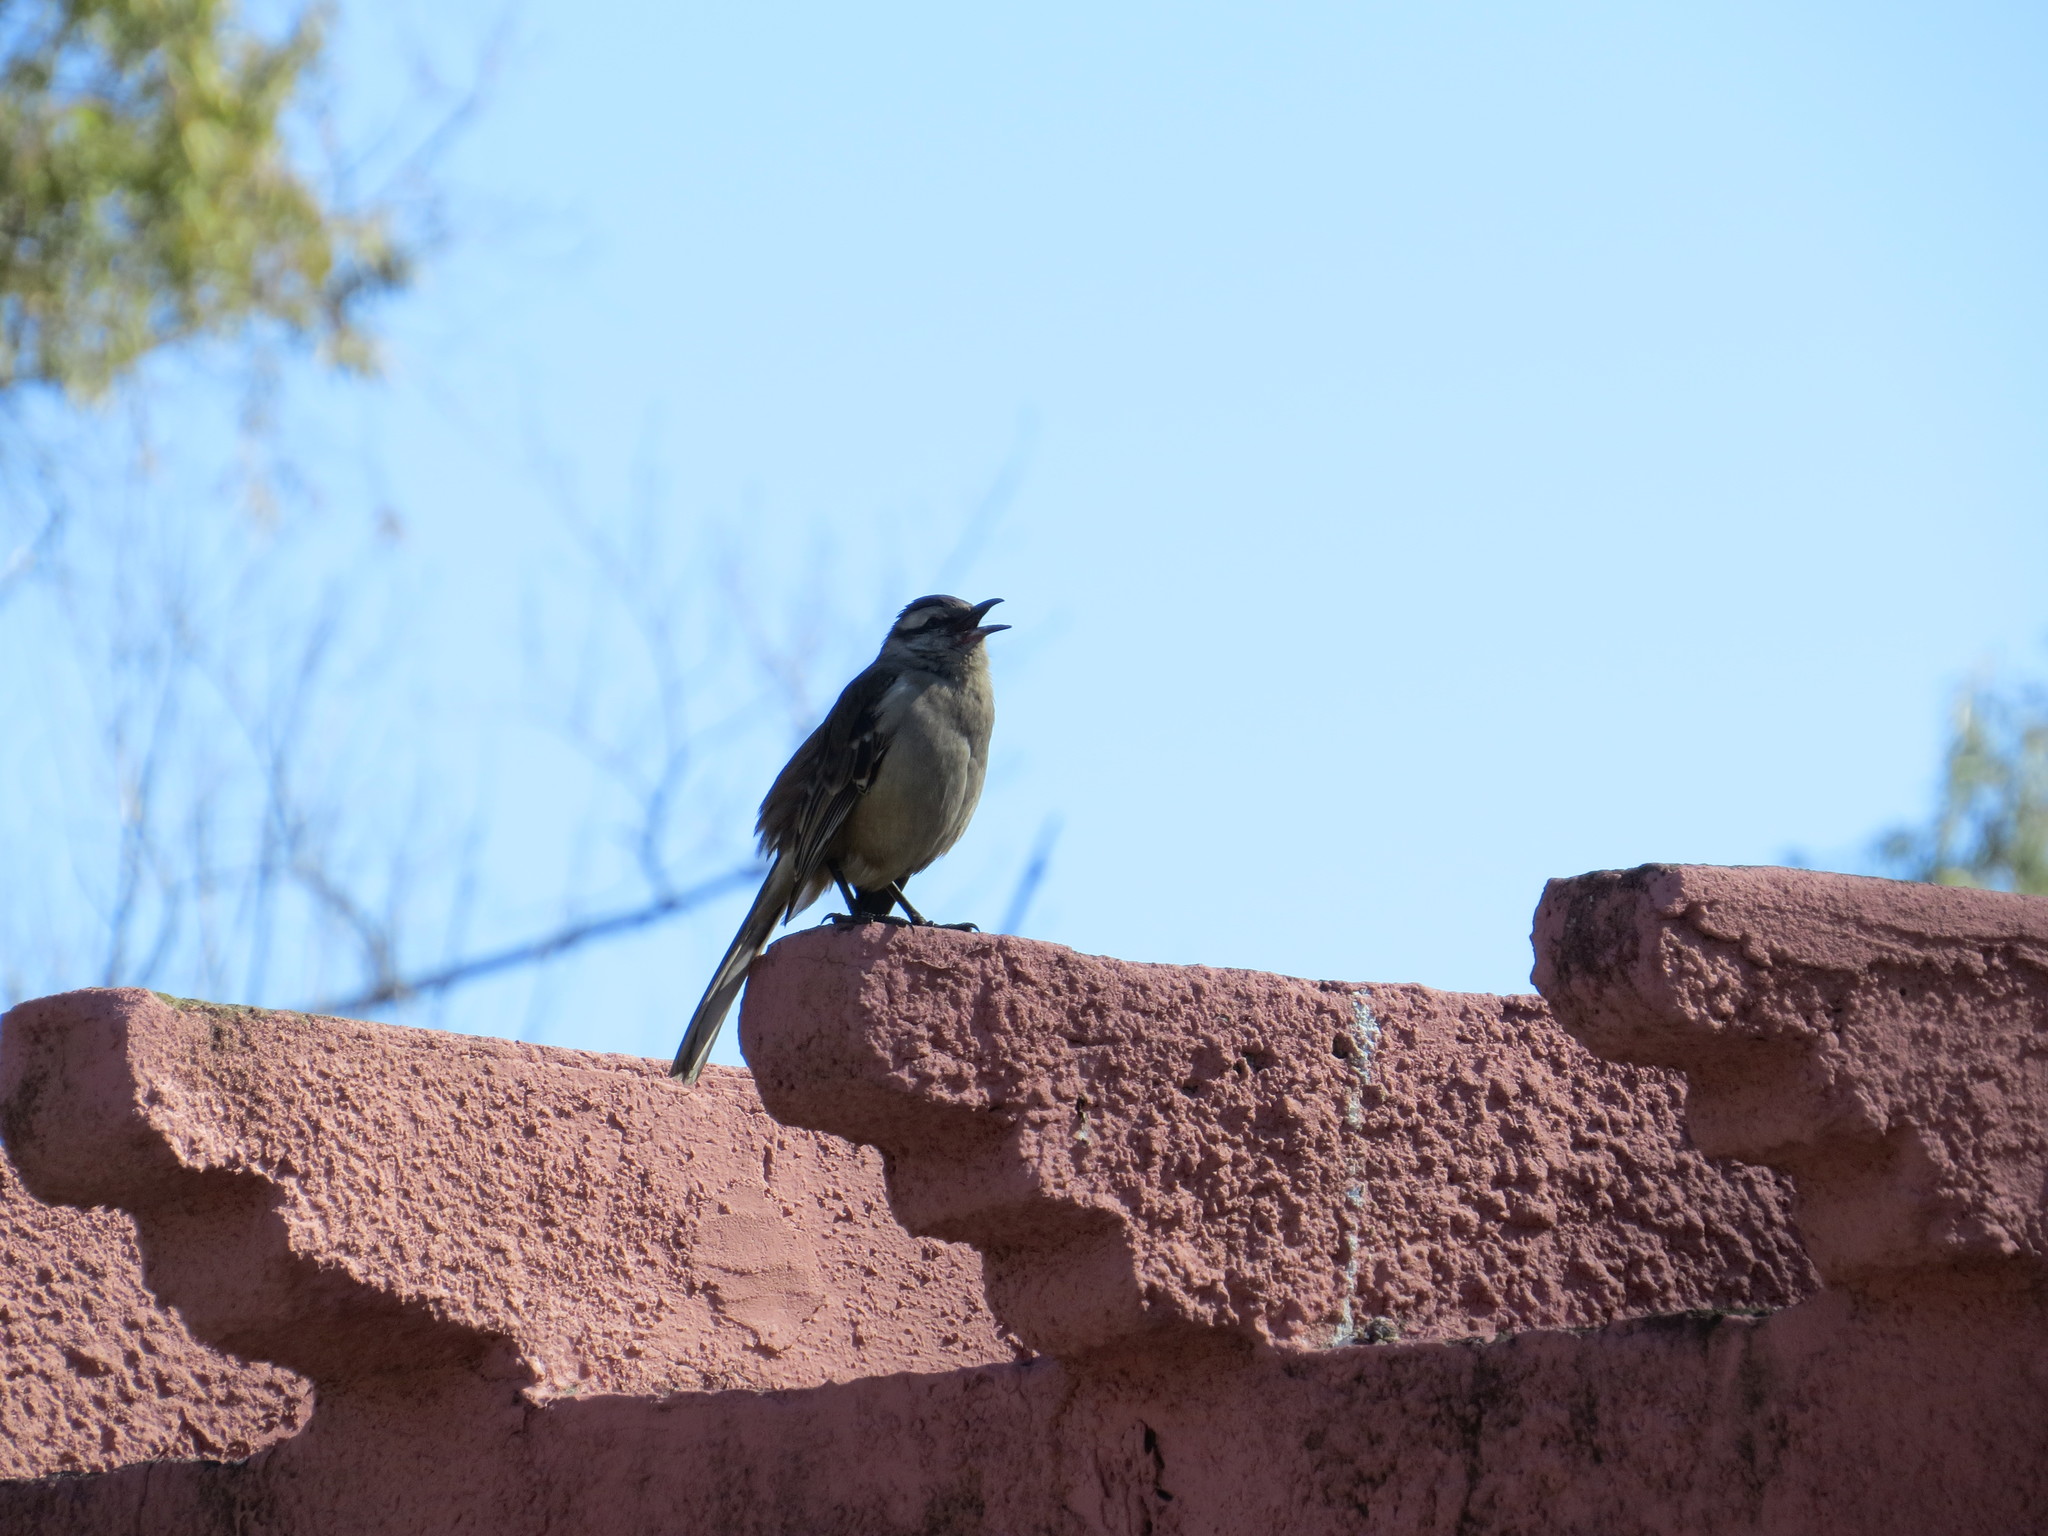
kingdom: Animalia
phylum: Chordata
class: Aves
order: Passeriformes
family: Mimidae
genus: Mimus
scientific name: Mimus saturninus
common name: Chalk-browed mockingbird
